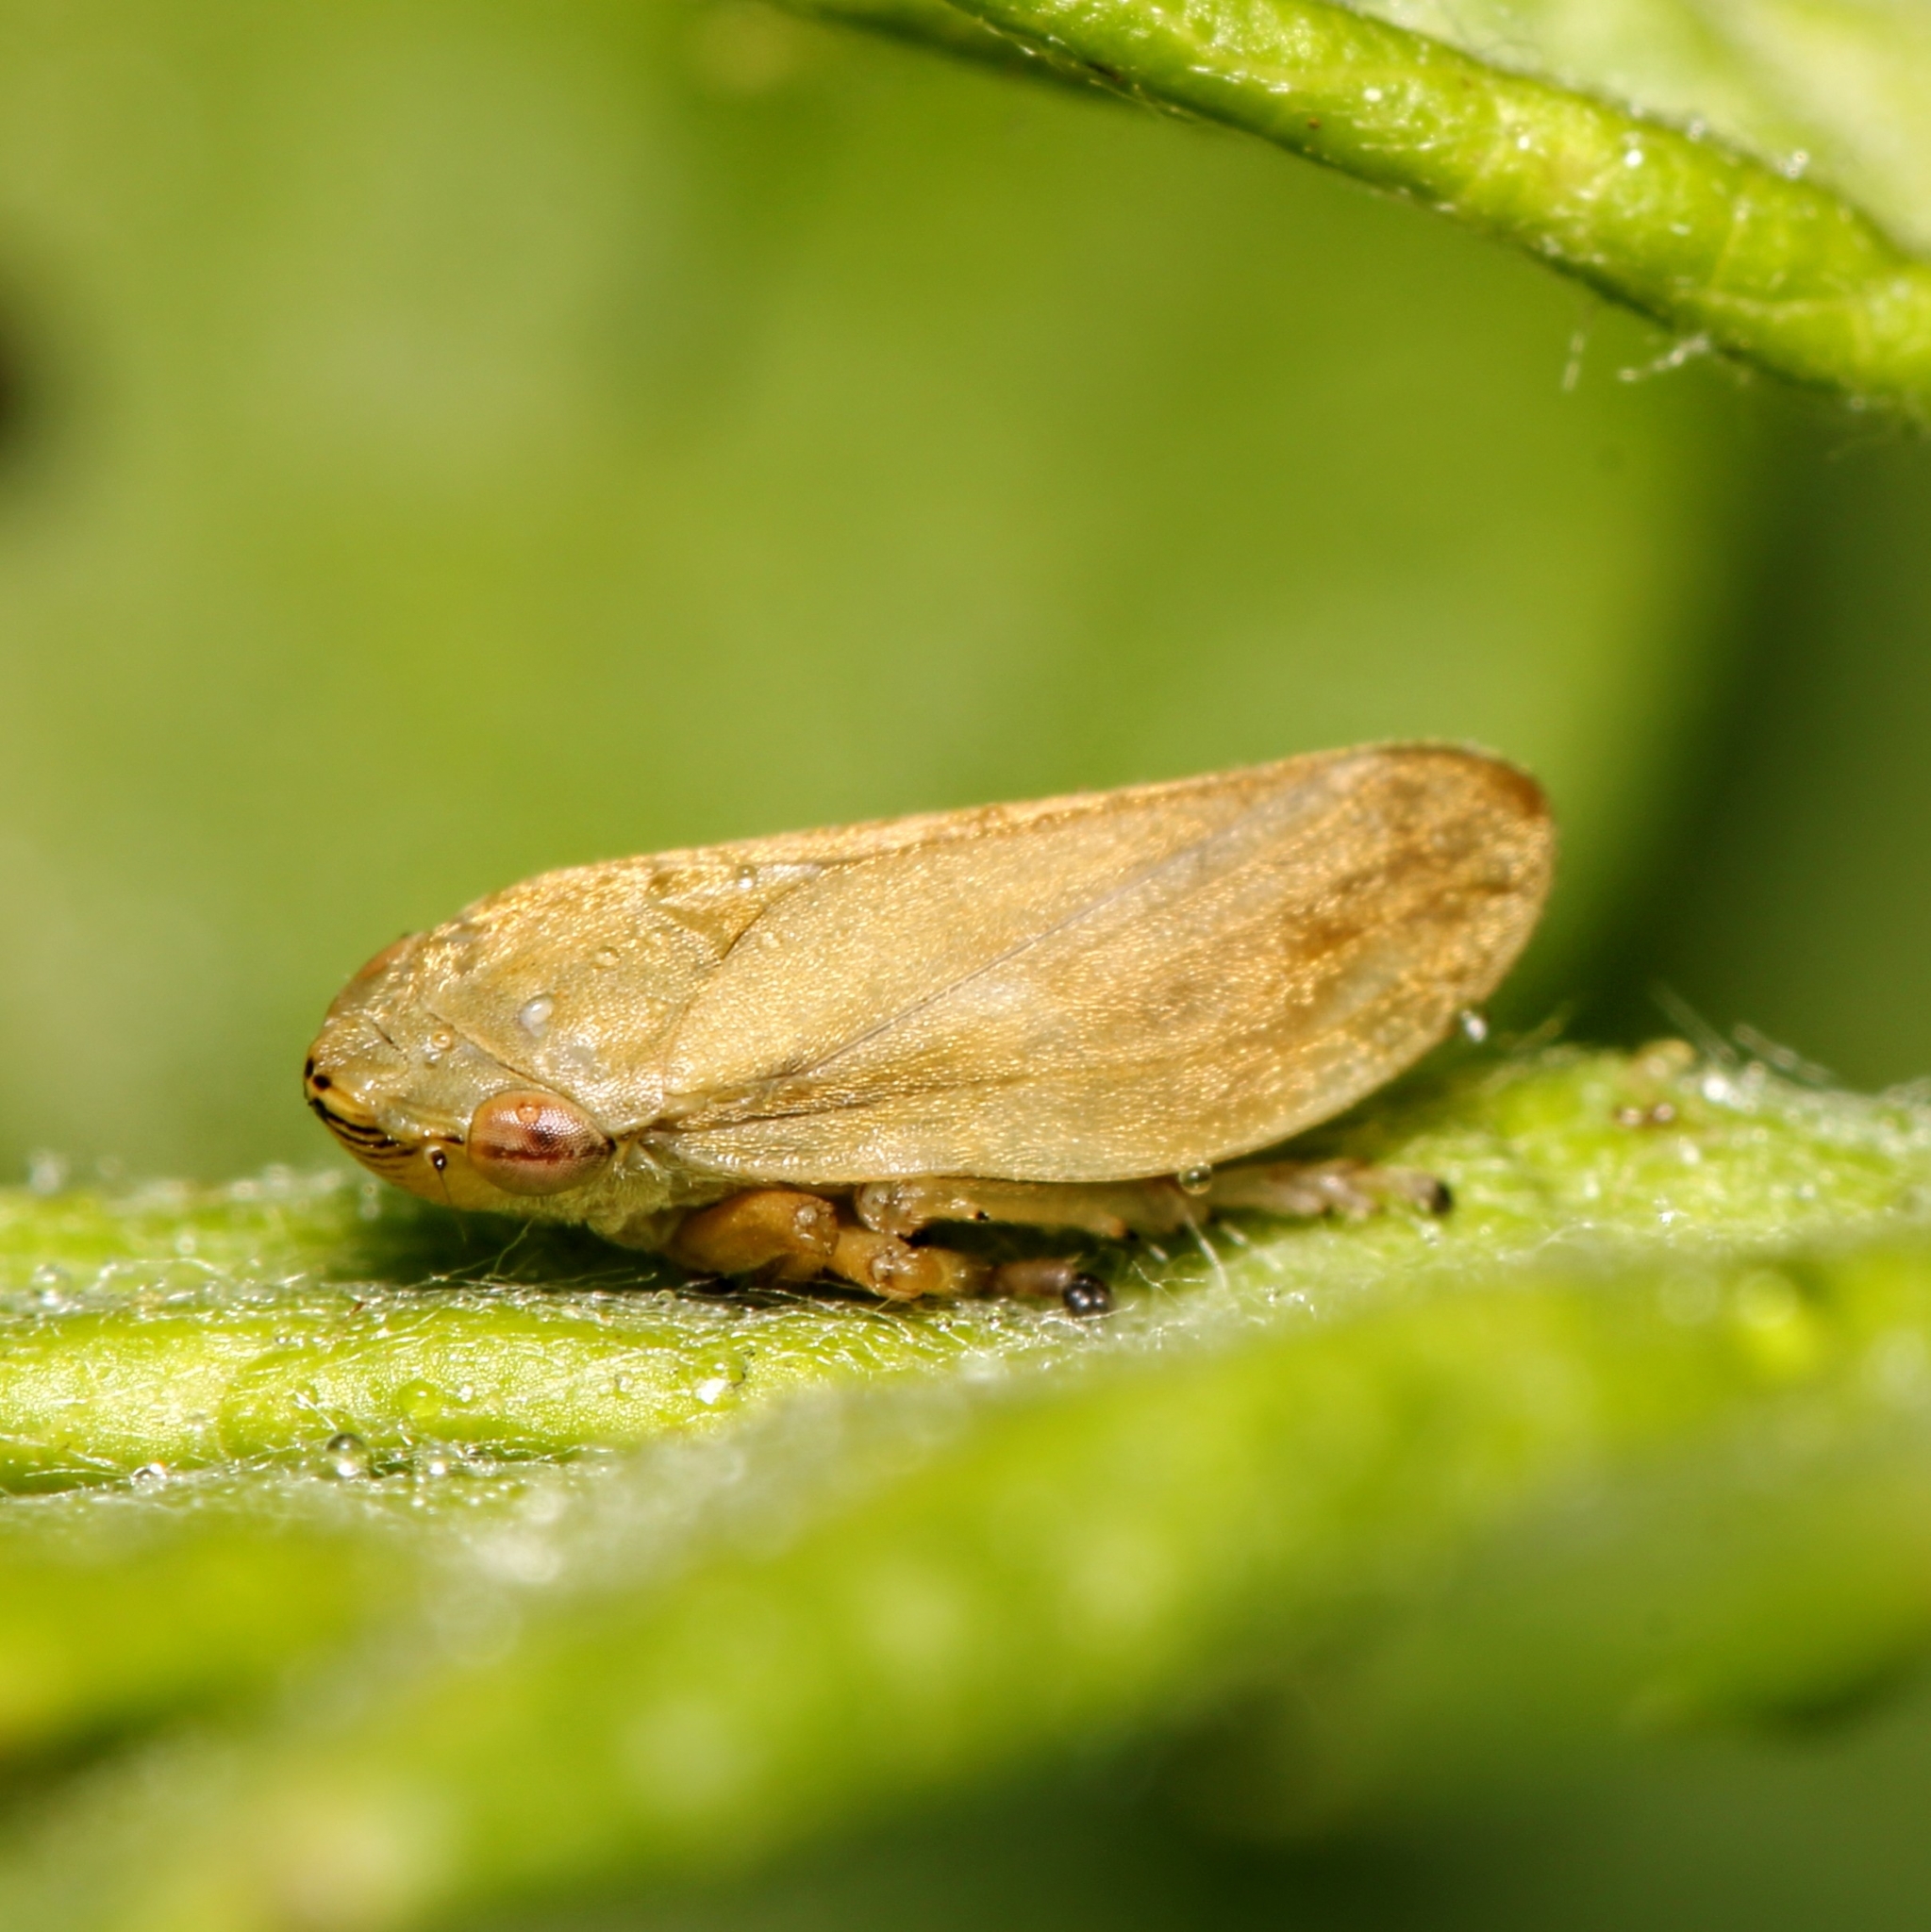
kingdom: Animalia
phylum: Arthropoda
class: Insecta
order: Hemiptera
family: Aphrophoridae
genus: Philaenus
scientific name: Philaenus spumarius
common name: Meadow spittlebug
